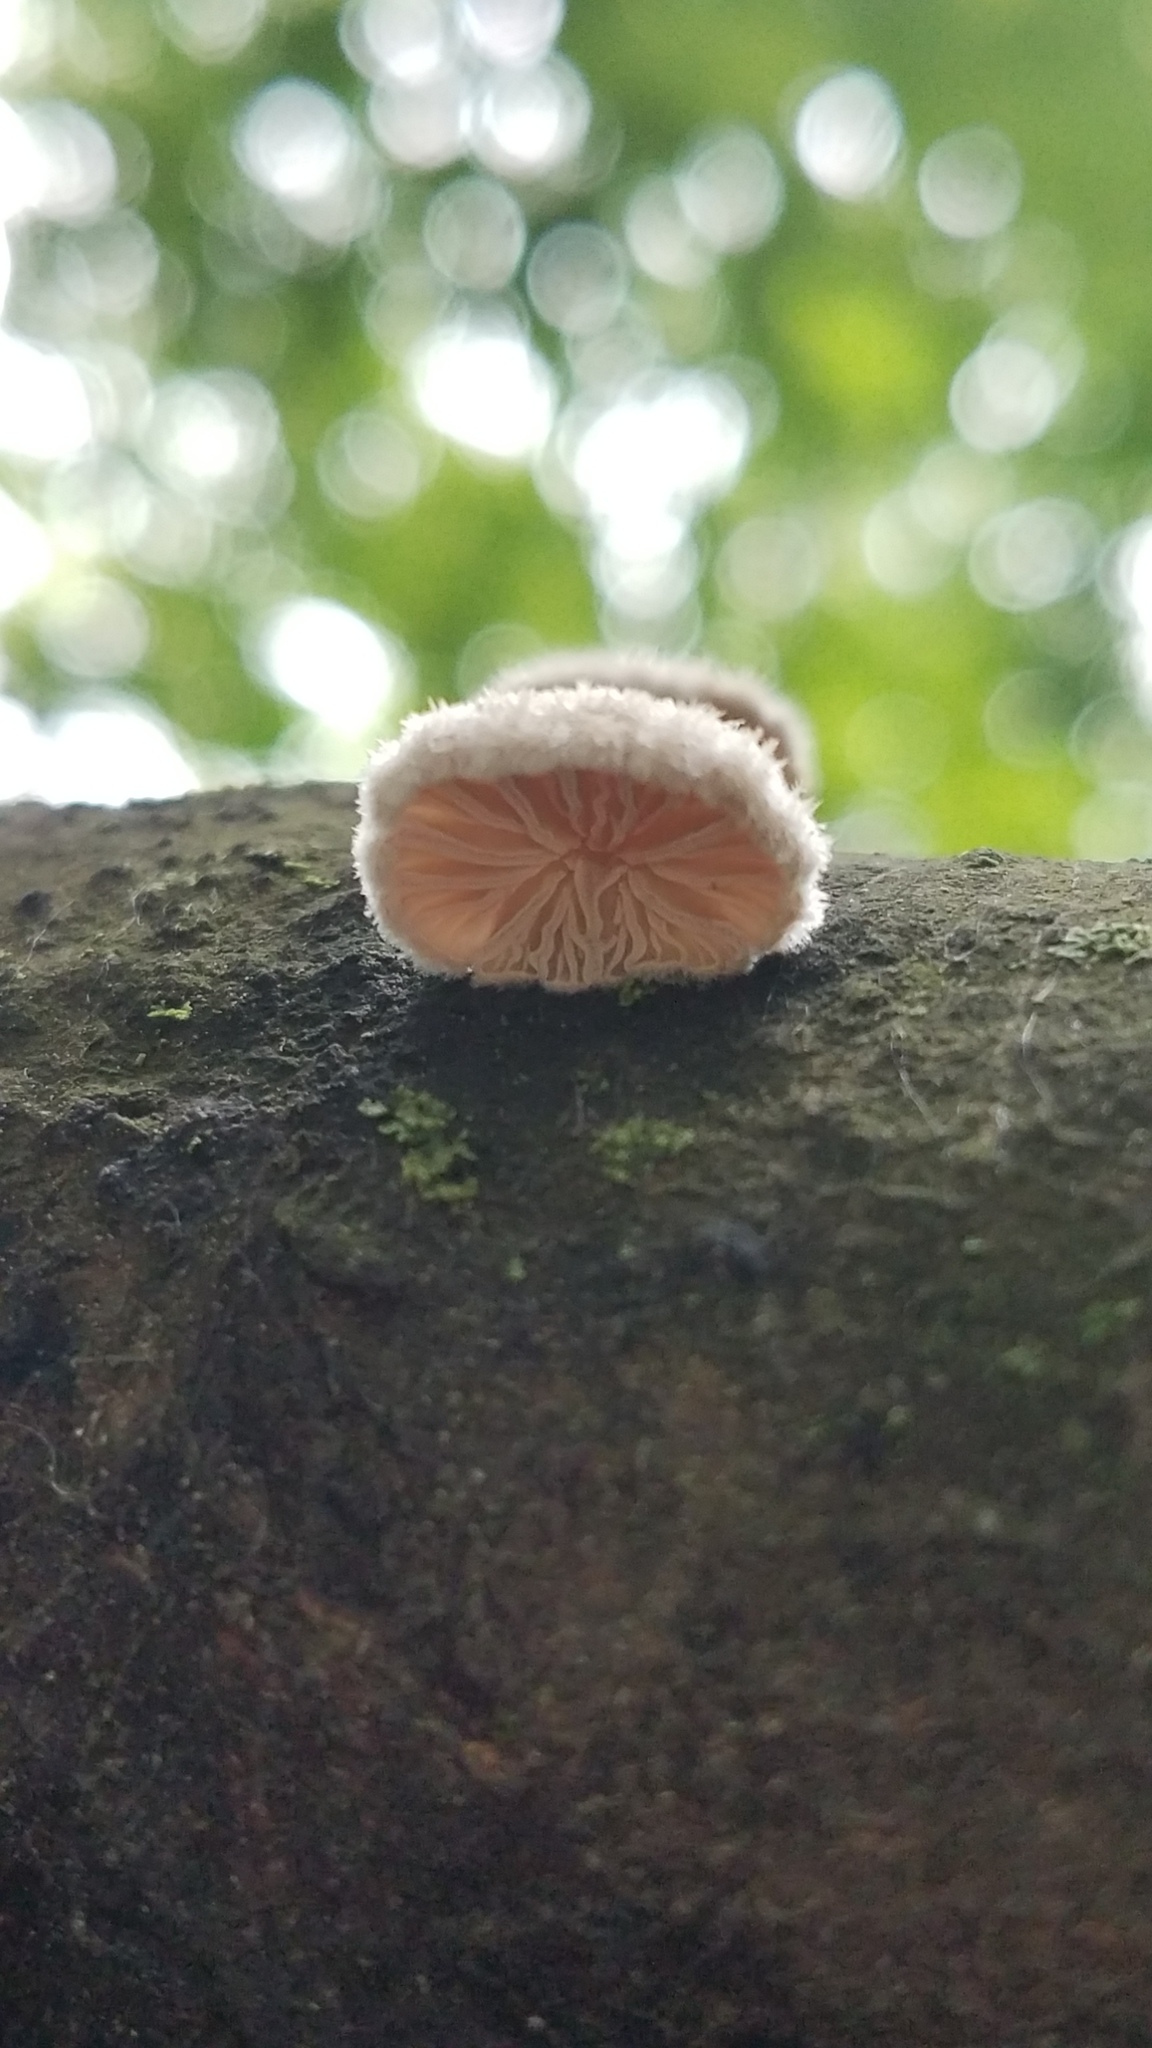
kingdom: Fungi
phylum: Basidiomycota
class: Agaricomycetes
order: Agaricales
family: Schizophyllaceae
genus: Schizophyllum
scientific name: Schizophyllum commune
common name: Common porecrust
